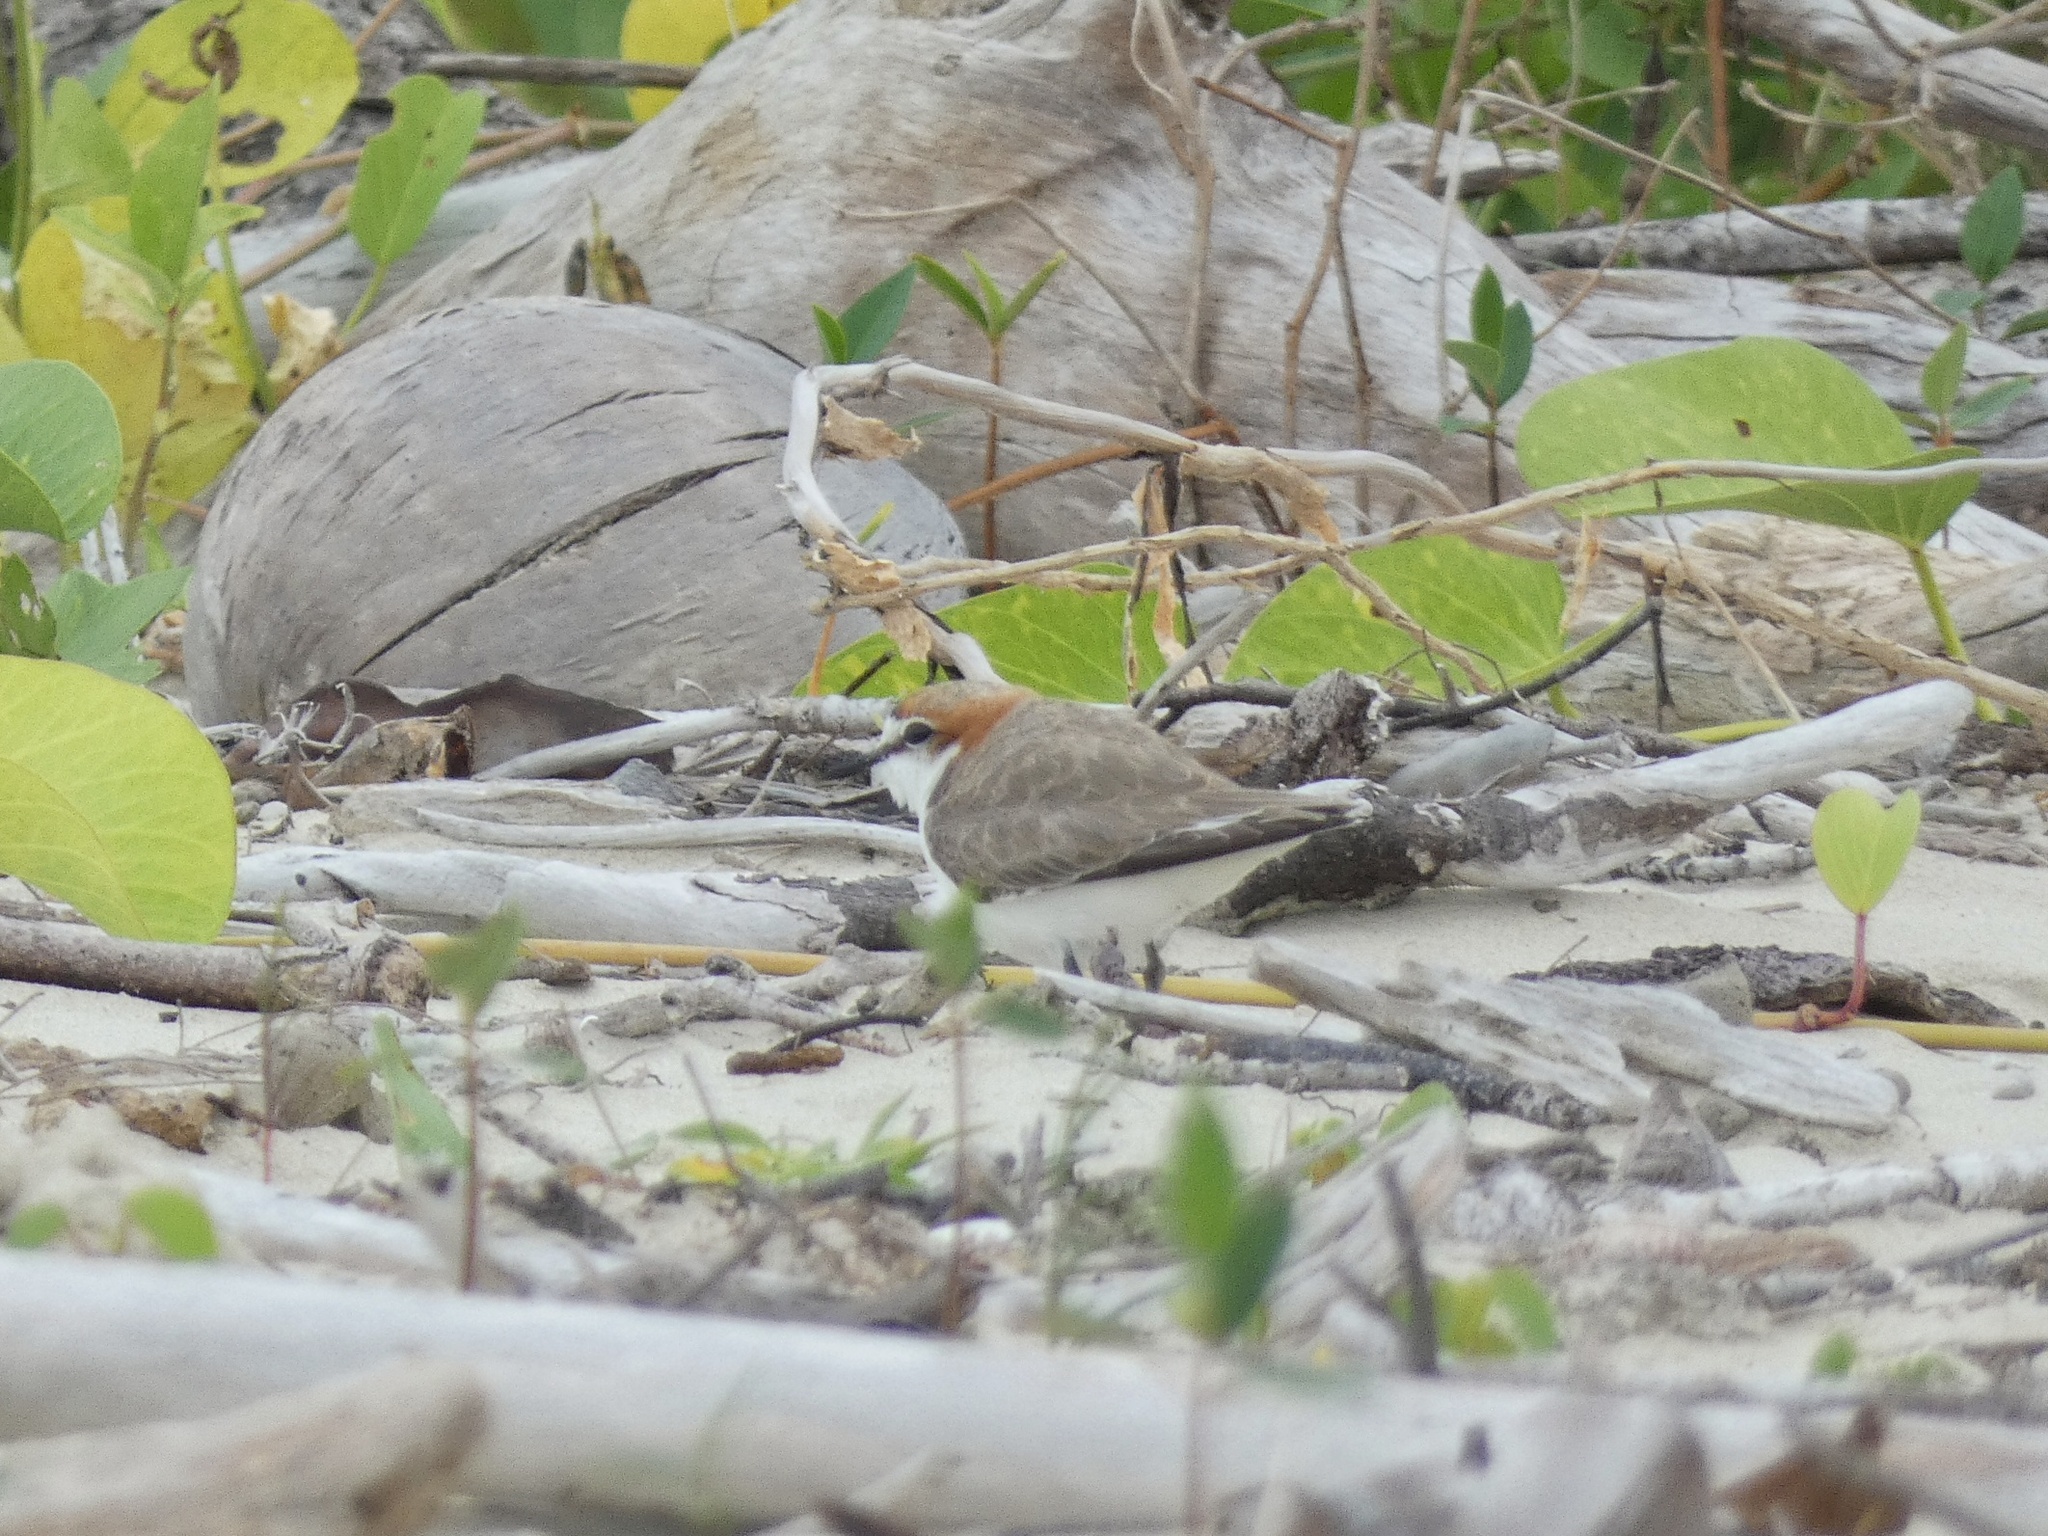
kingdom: Animalia
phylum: Chordata
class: Aves
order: Charadriiformes
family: Charadriidae
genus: Anarhynchus
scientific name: Anarhynchus
